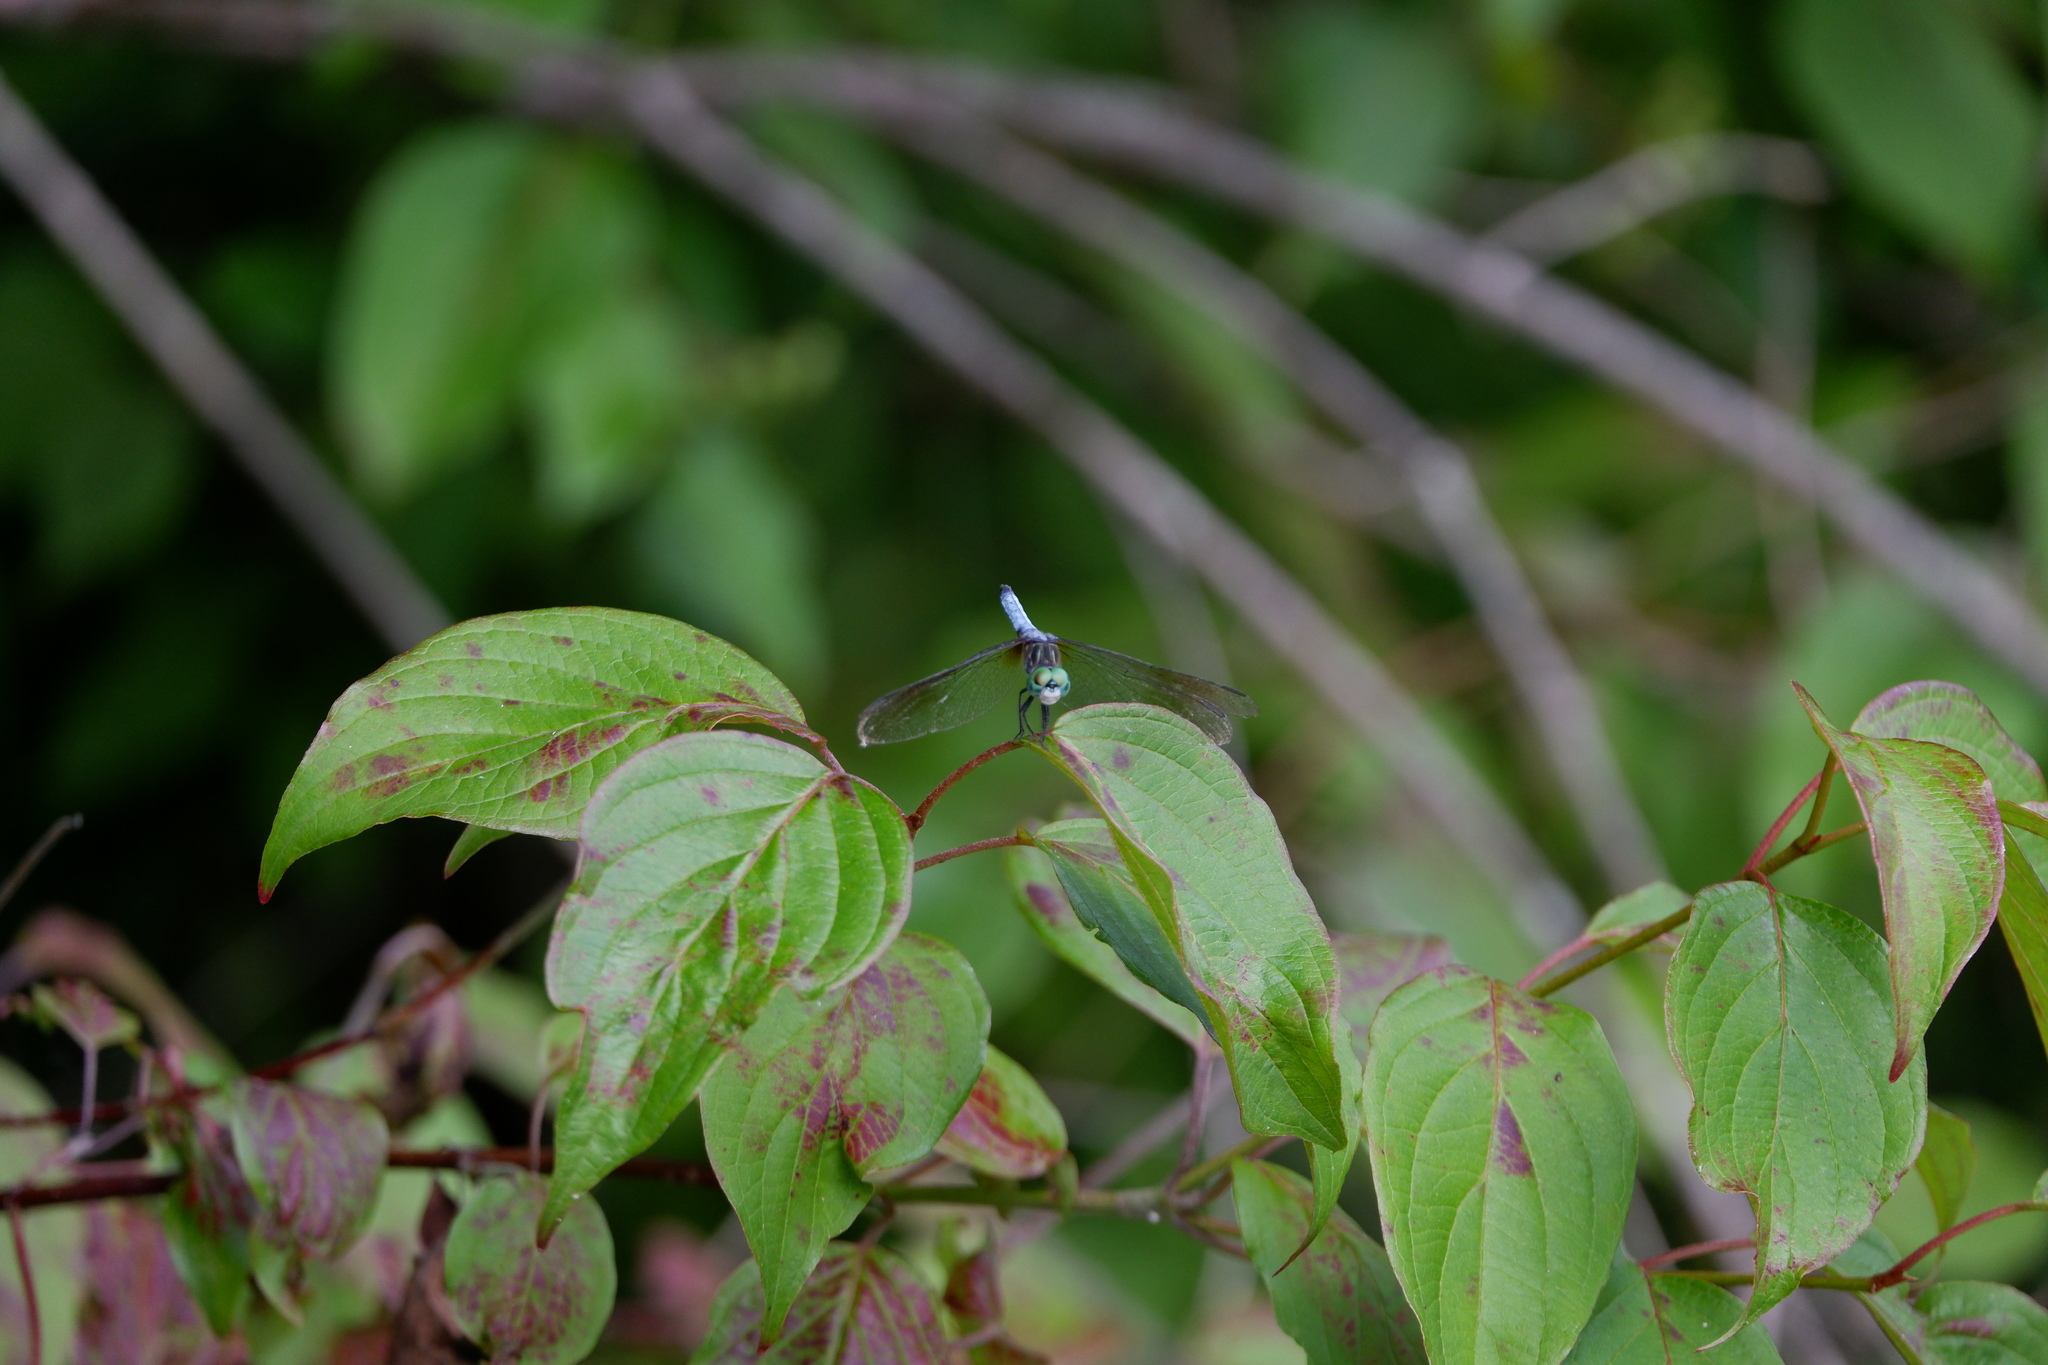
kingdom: Animalia
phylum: Arthropoda
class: Insecta
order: Odonata
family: Libellulidae
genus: Pachydiplax
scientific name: Pachydiplax longipennis
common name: Blue dasher
